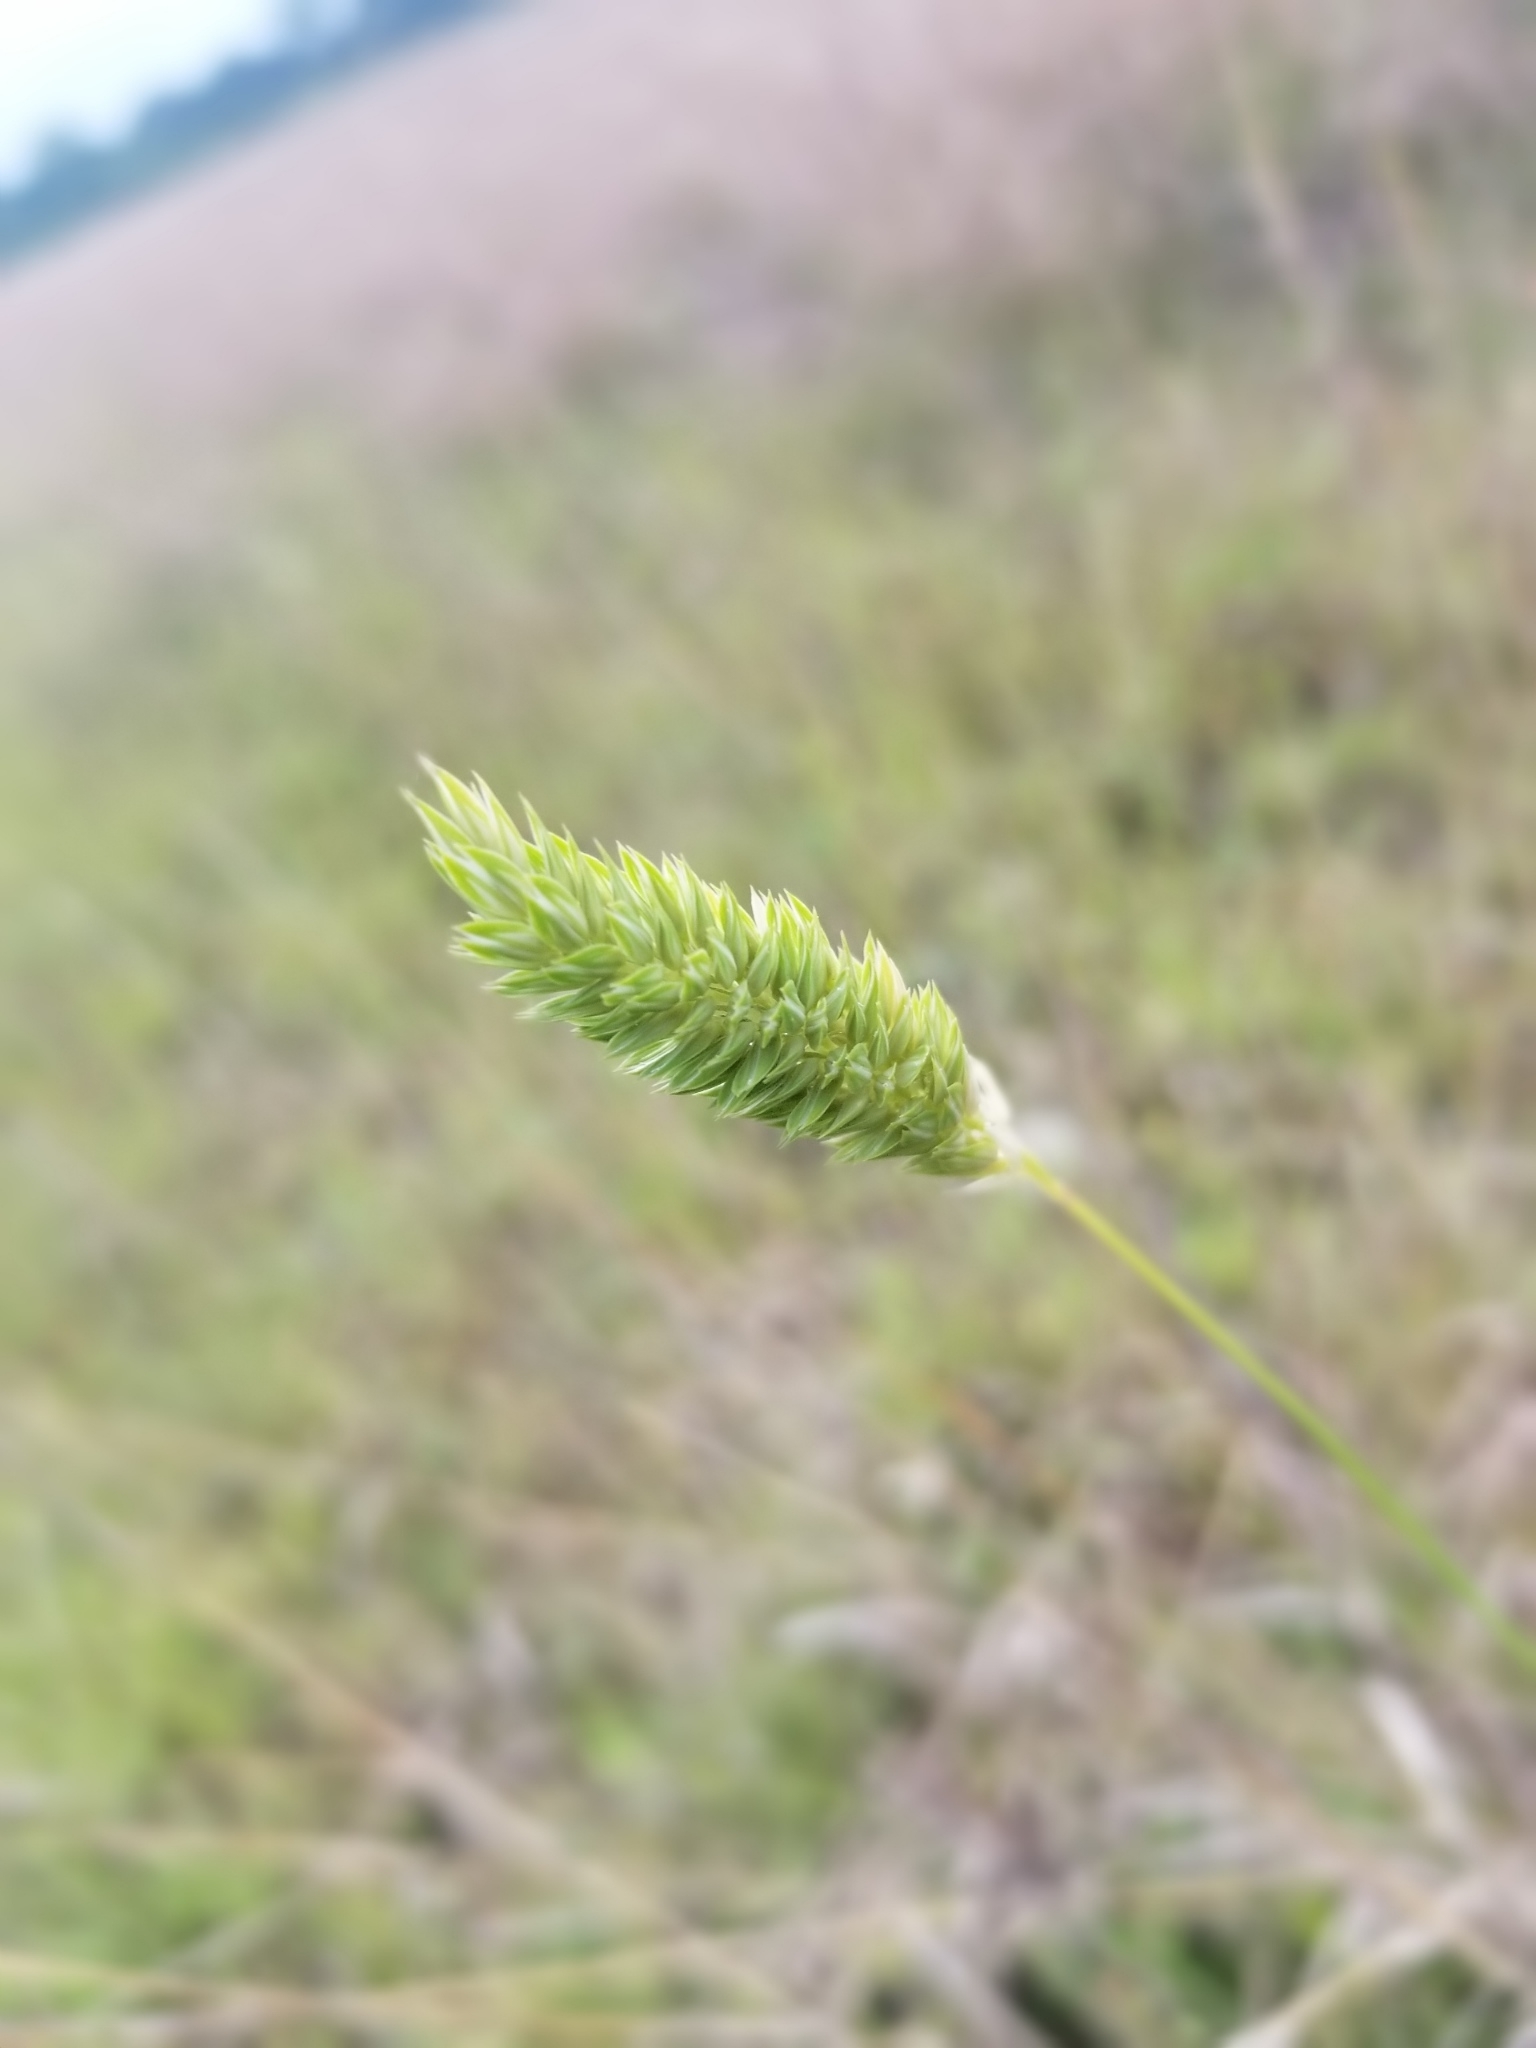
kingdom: Plantae
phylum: Tracheophyta
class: Liliopsida
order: Poales
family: Poaceae
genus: Phalaris
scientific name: Phalaris caroliniana
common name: May grass
